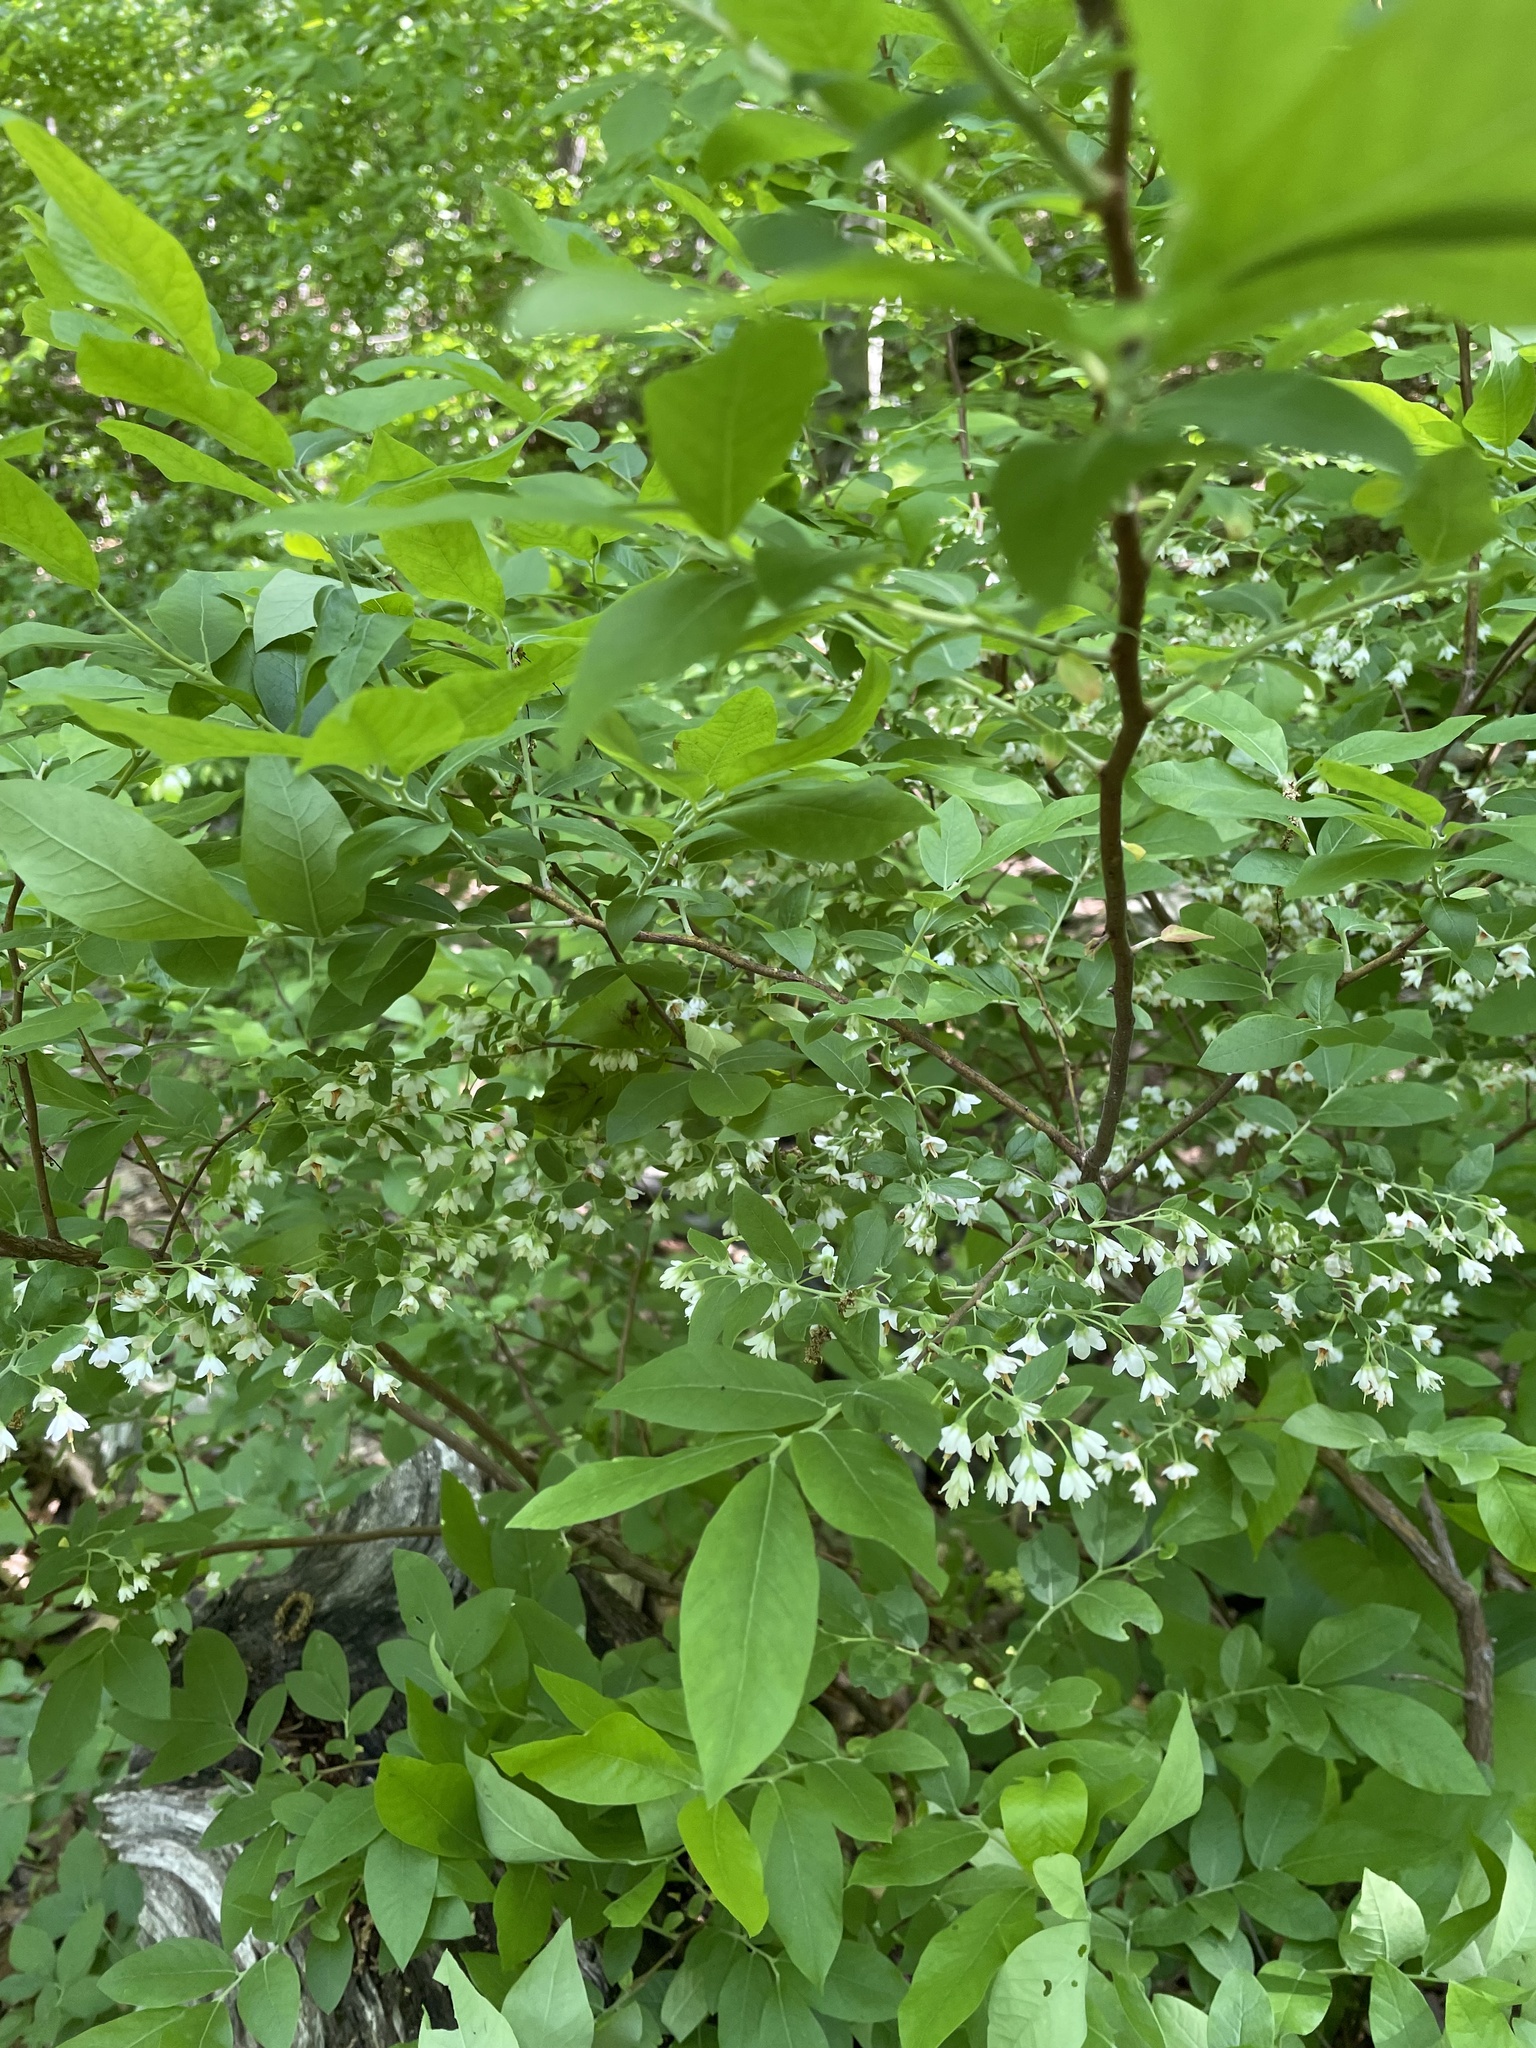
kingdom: Plantae
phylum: Tracheophyta
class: Magnoliopsida
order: Ericales
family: Ericaceae
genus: Vaccinium
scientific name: Vaccinium stamineum
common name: Deerberry
